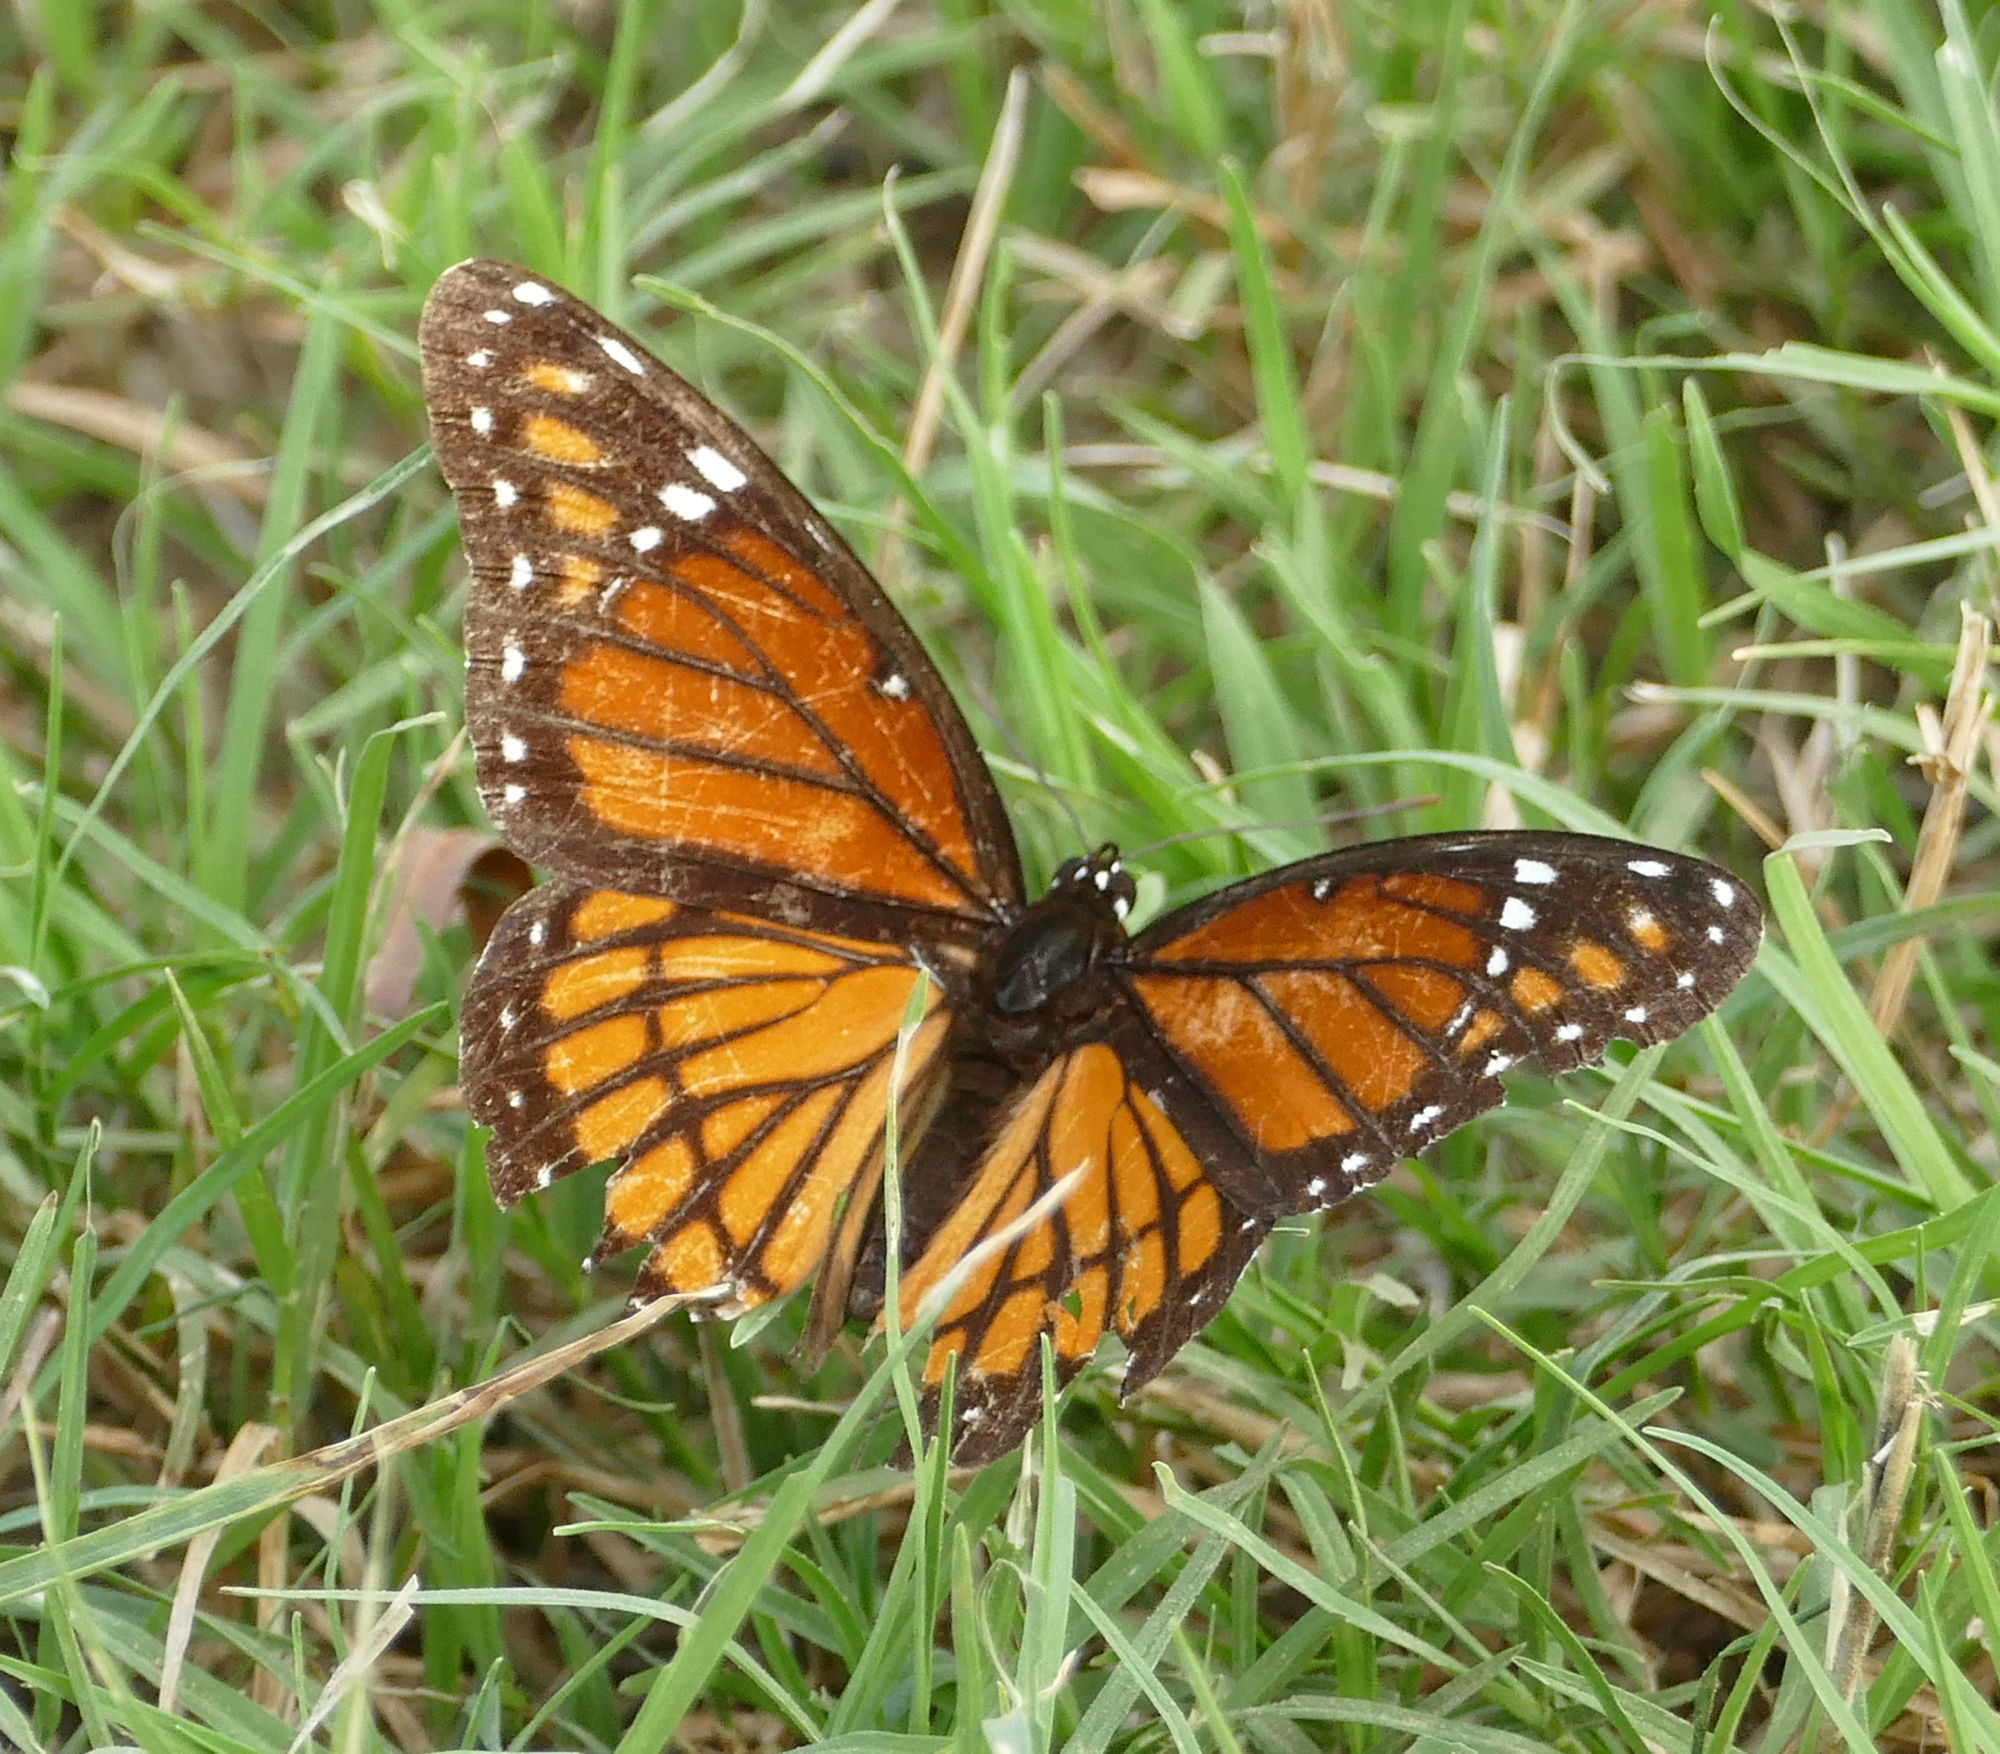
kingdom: Animalia
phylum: Arthropoda
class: Insecta
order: Lepidoptera
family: Nymphalidae
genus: Limenitis
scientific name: Limenitis archippus
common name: Viceroy
